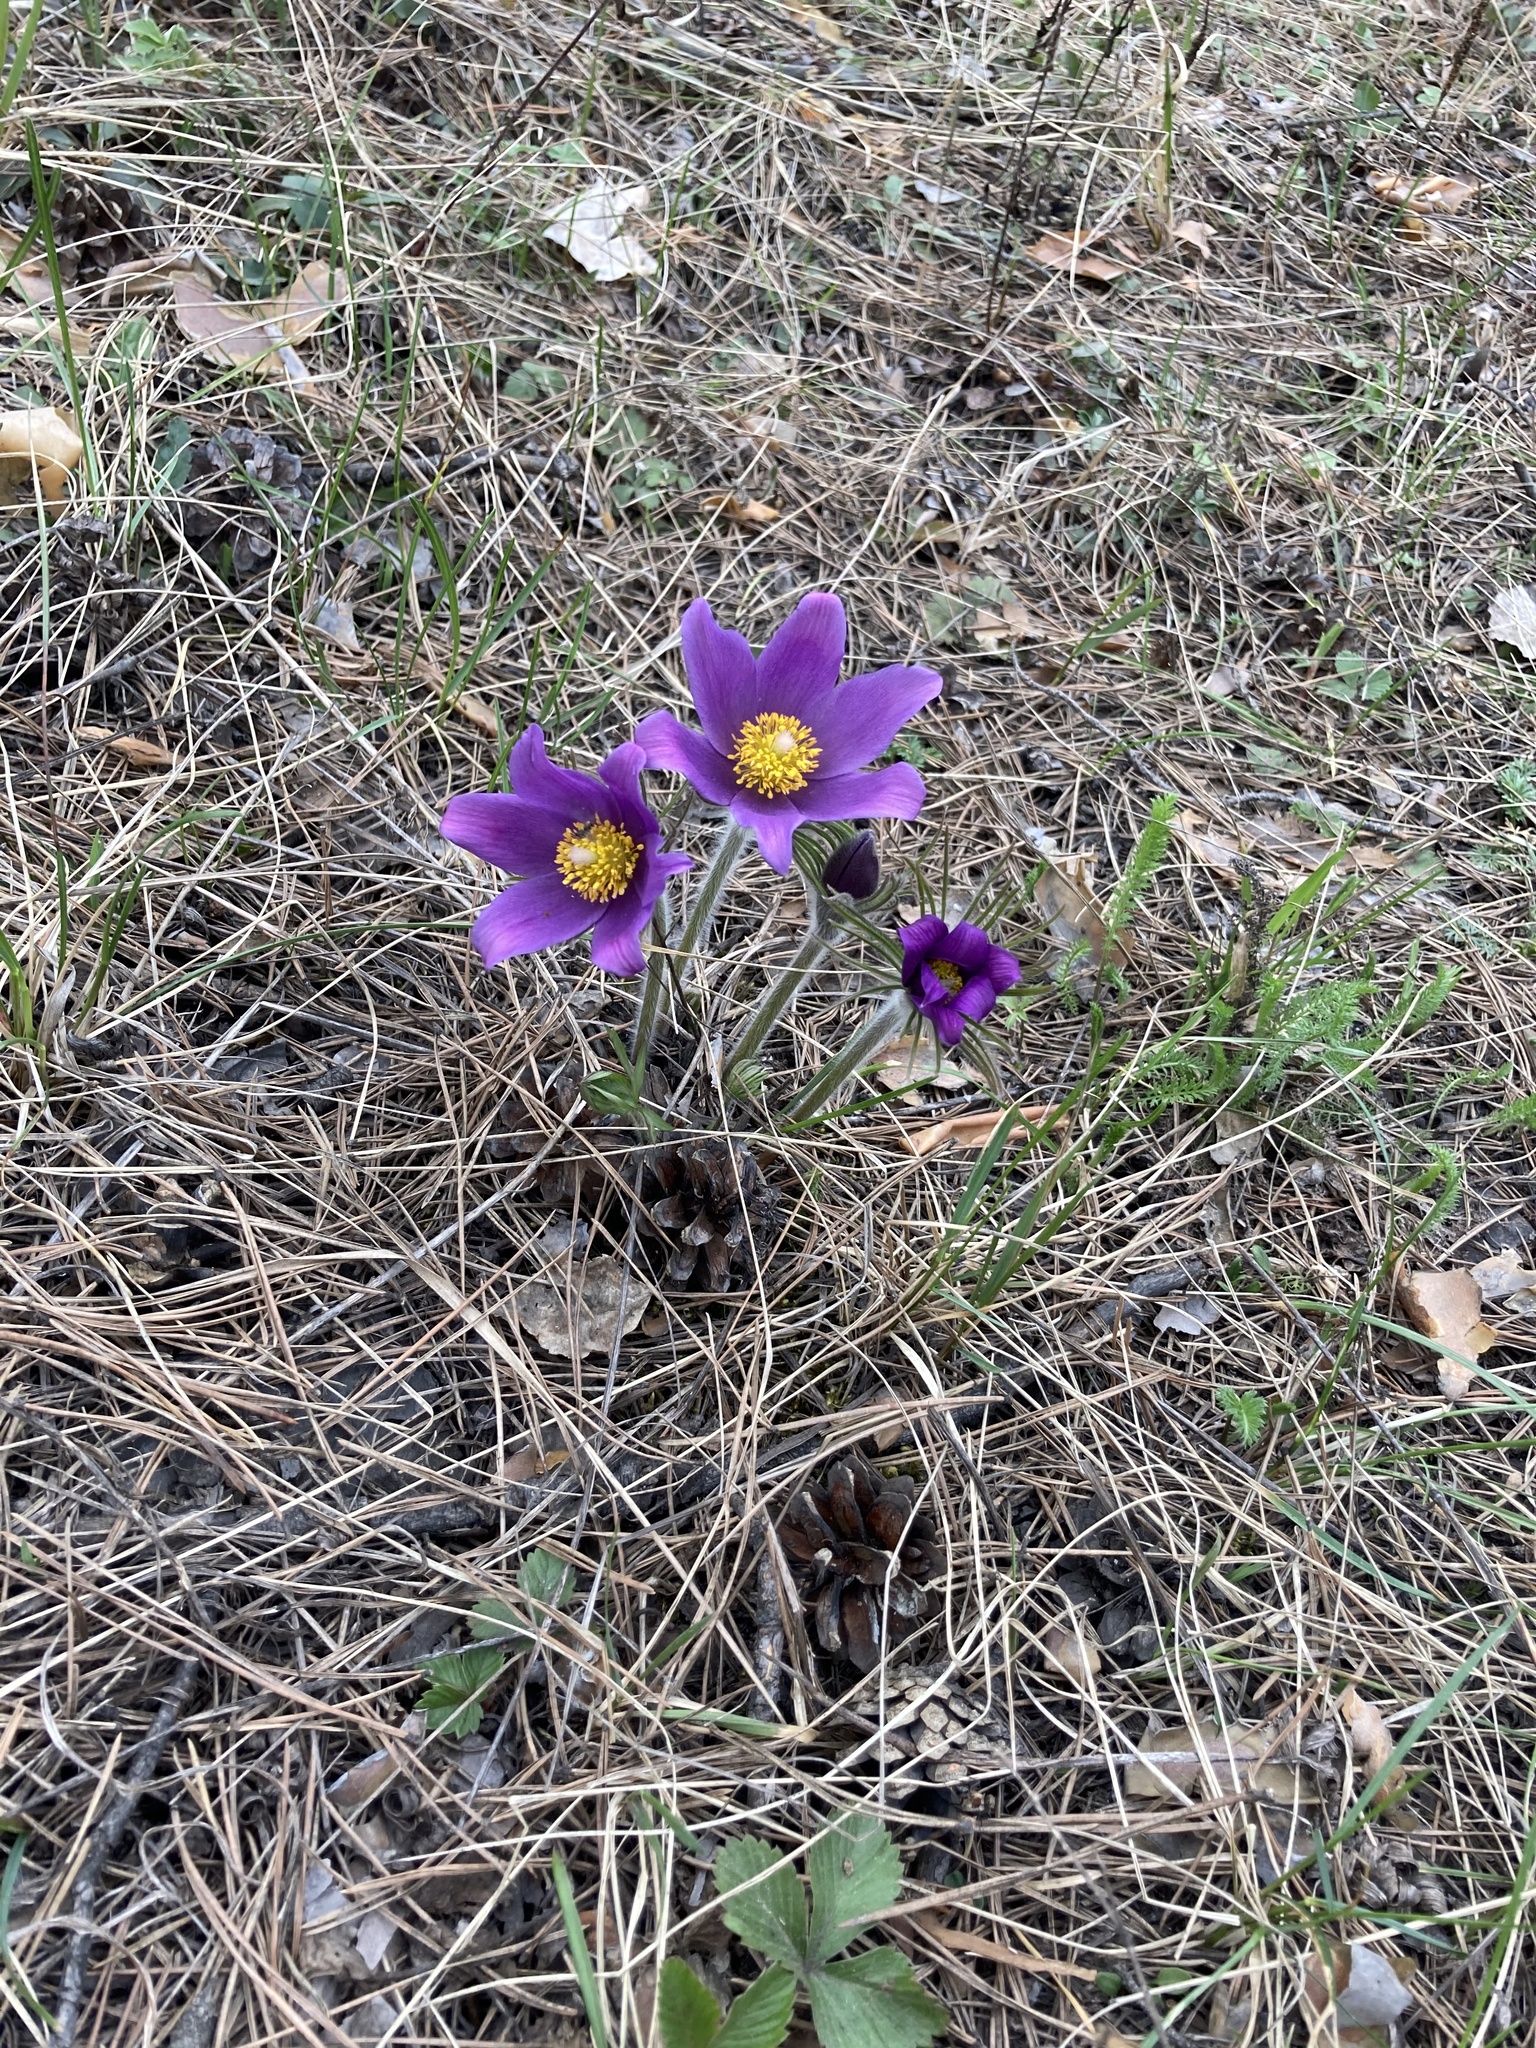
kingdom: Plantae
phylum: Tracheophyta
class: Magnoliopsida
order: Ranunculales
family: Ranunculaceae
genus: Pulsatilla
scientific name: Pulsatilla patens
